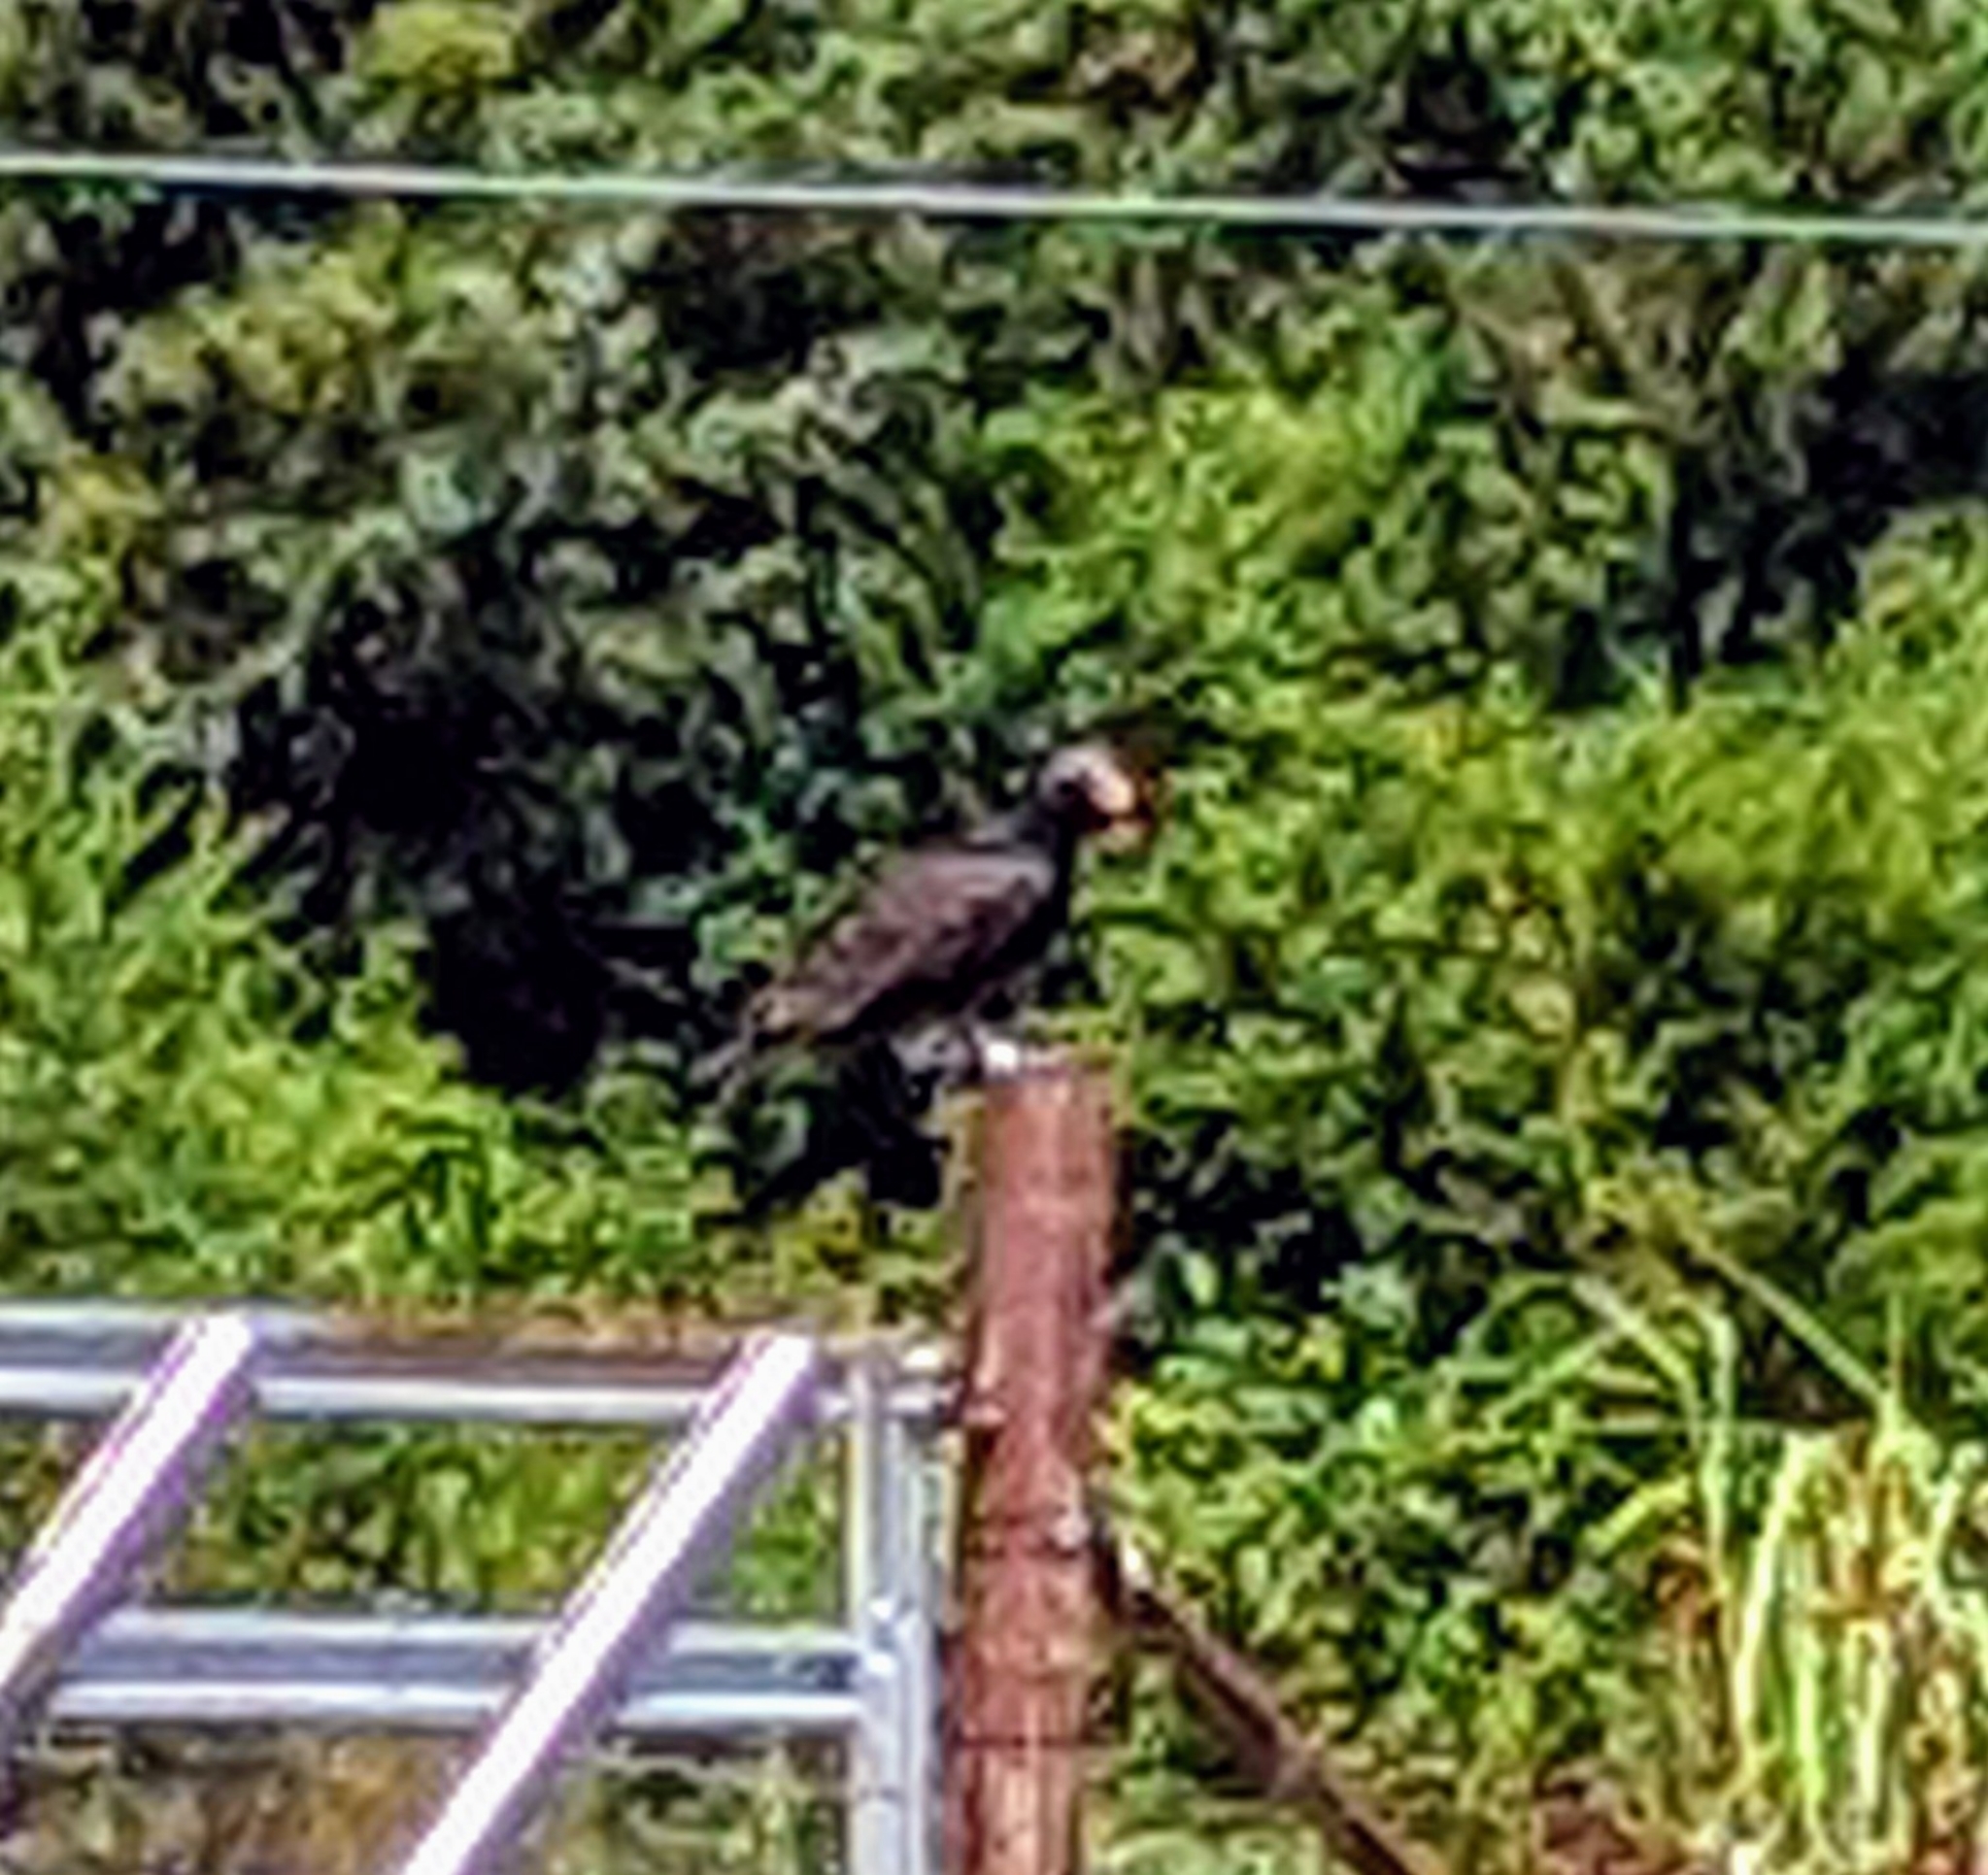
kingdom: Animalia
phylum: Chordata
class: Aves
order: Accipitriformes
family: Cathartidae
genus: Cathartes
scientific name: Cathartes aura
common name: Turkey vulture
